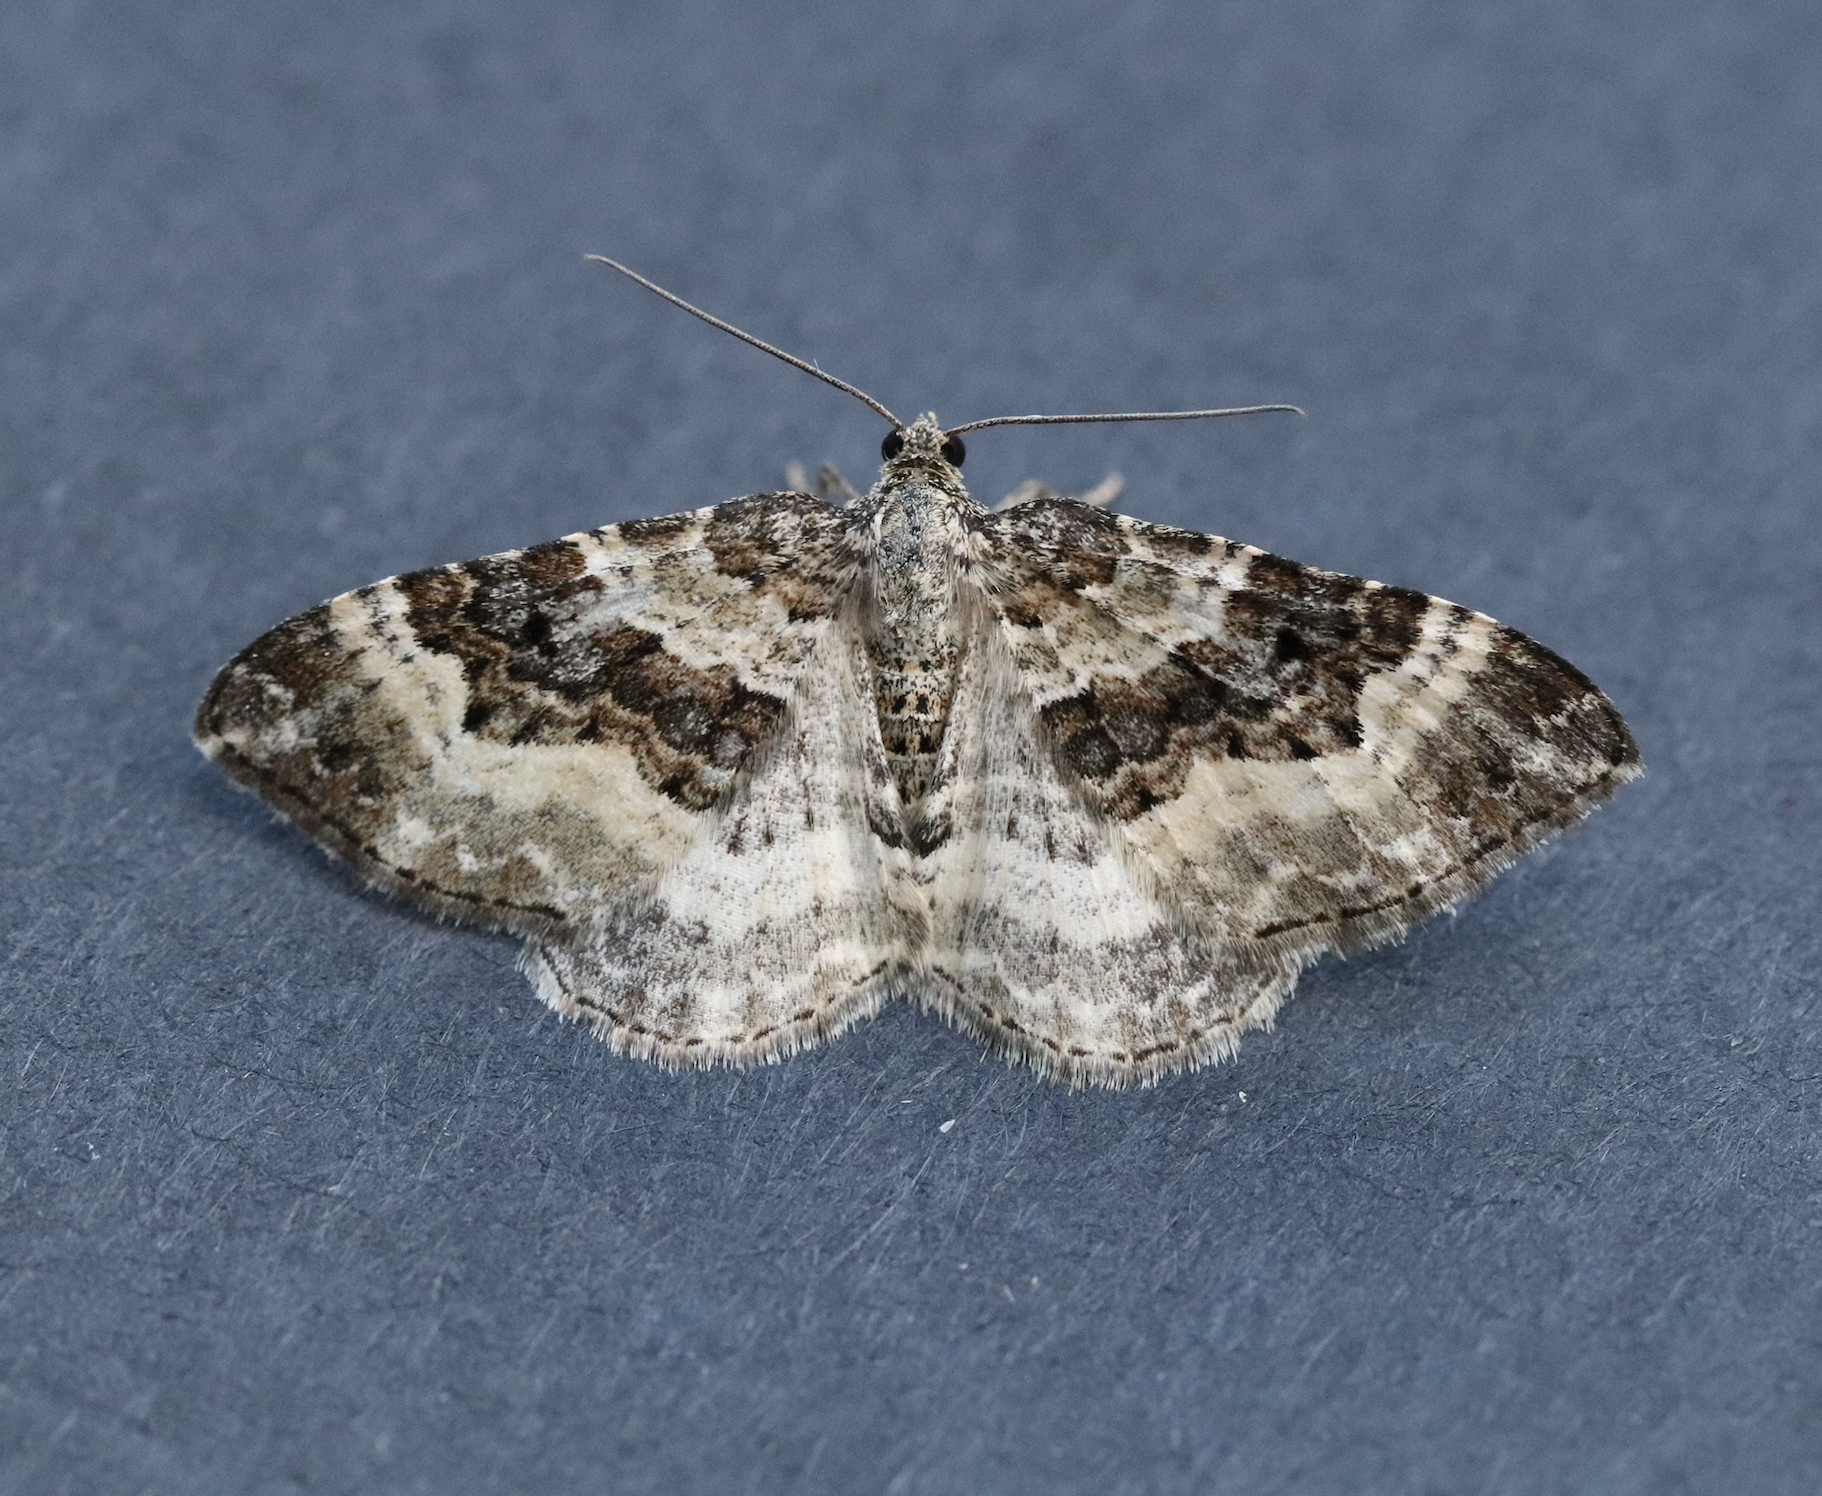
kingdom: Animalia
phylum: Arthropoda
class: Insecta
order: Lepidoptera
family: Geometridae
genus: Epirrhoe
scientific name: Epirrhoe alternata
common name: Common carpet
